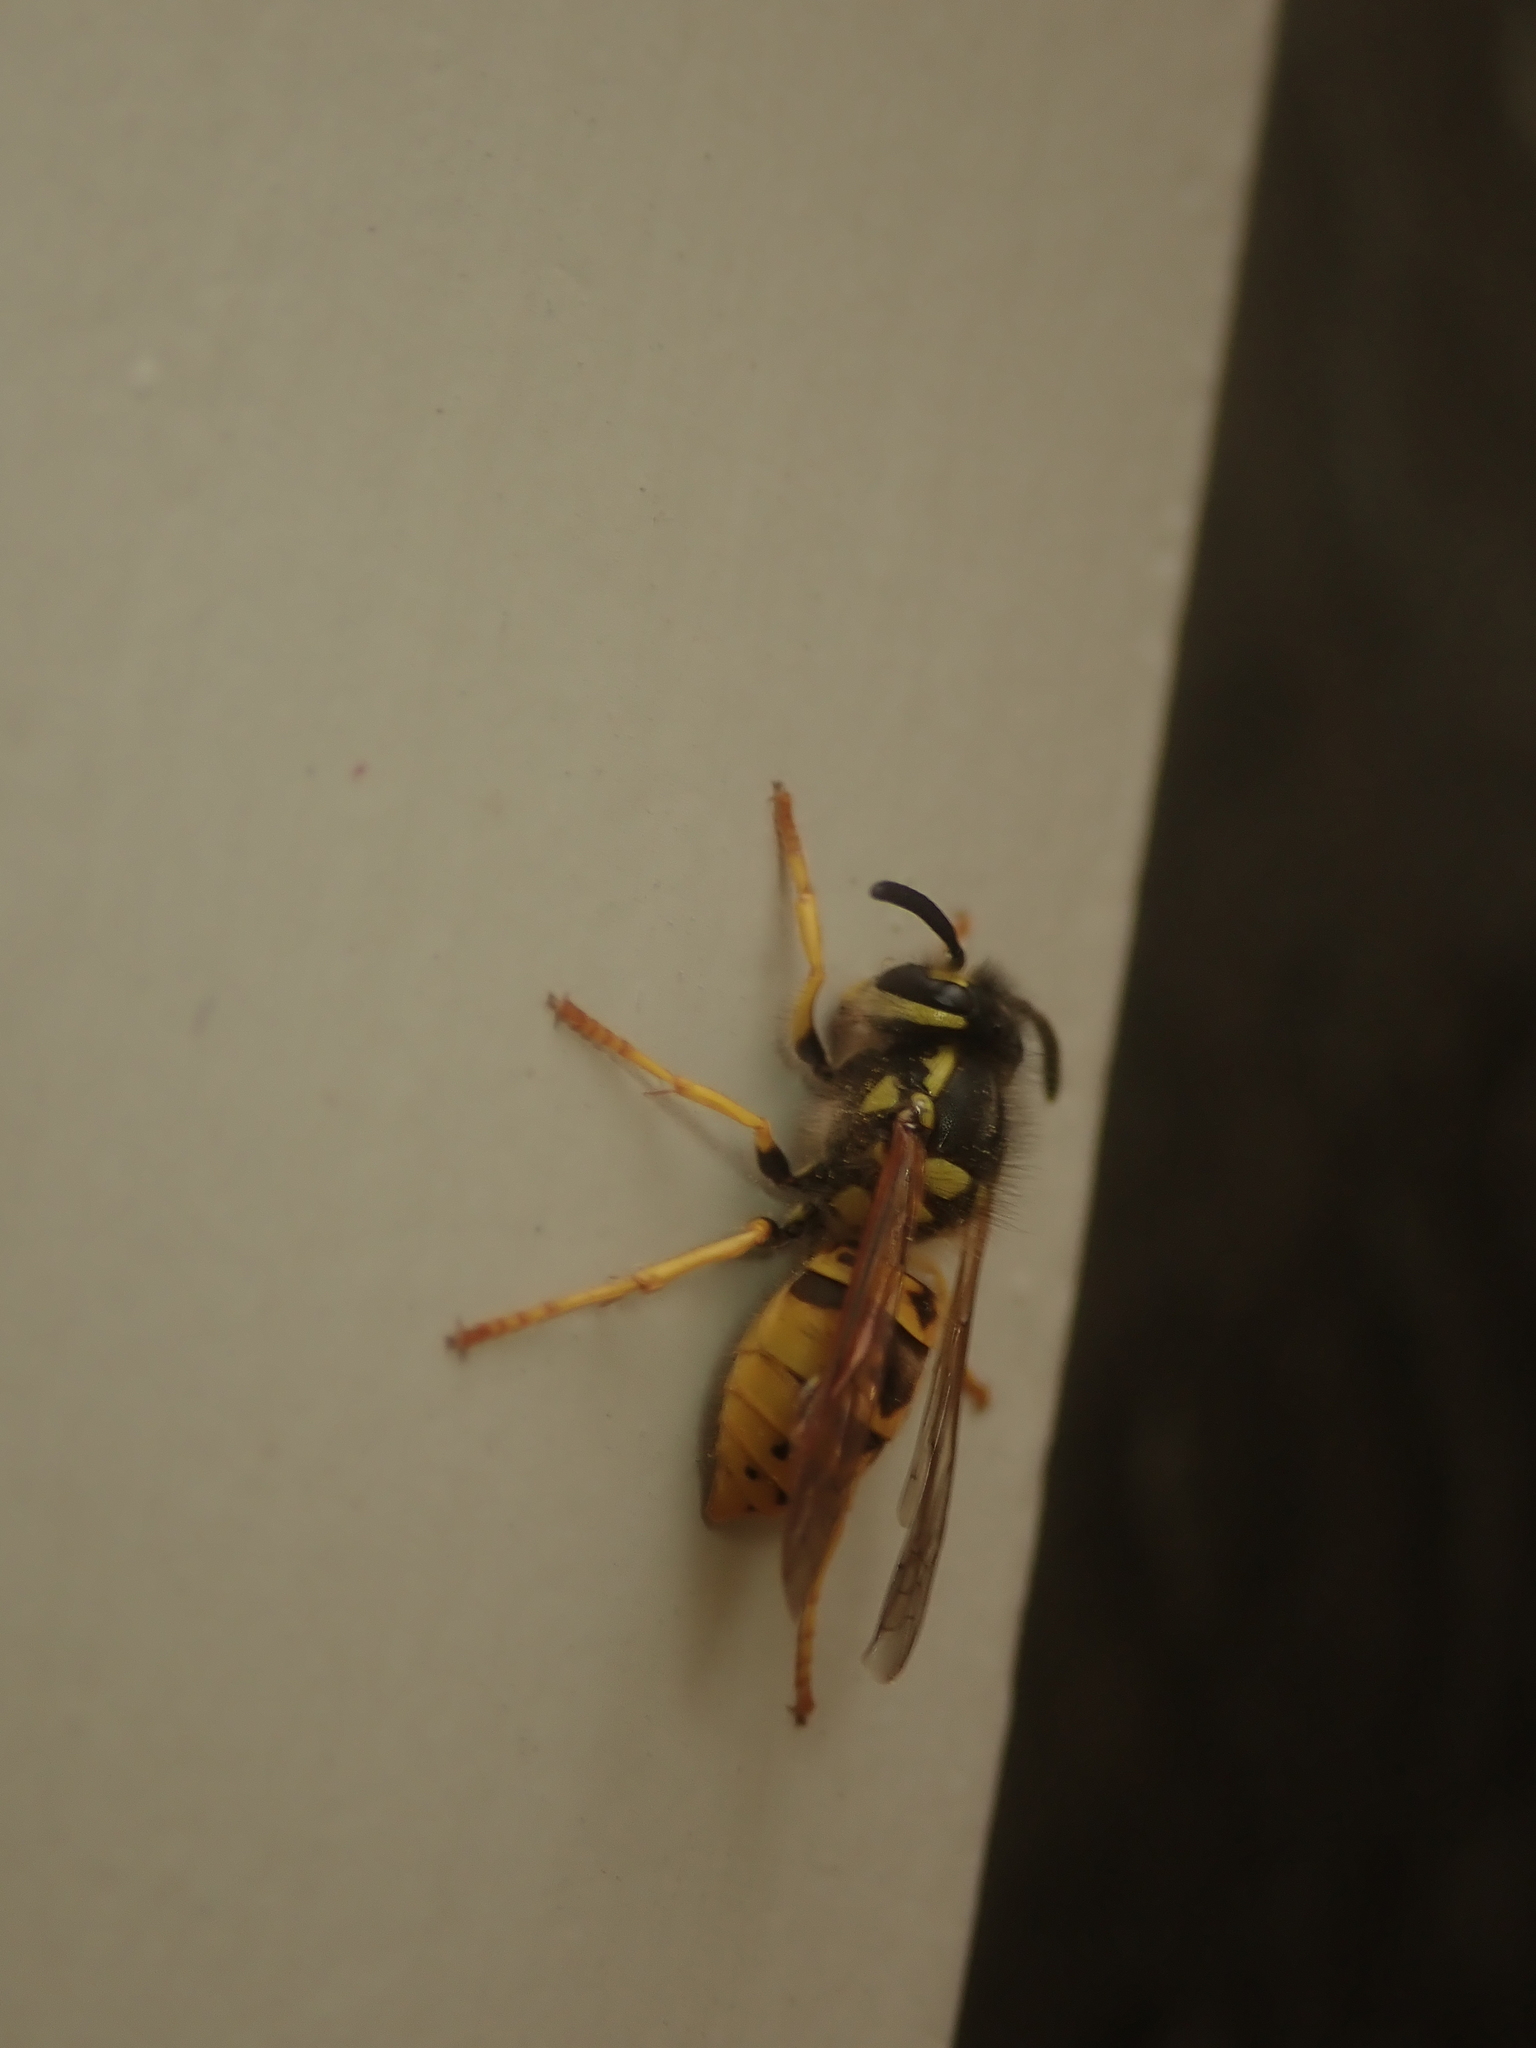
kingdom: Animalia
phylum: Arthropoda
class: Insecta
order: Hymenoptera
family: Vespidae
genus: Vespula
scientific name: Vespula germanica
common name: German wasp
